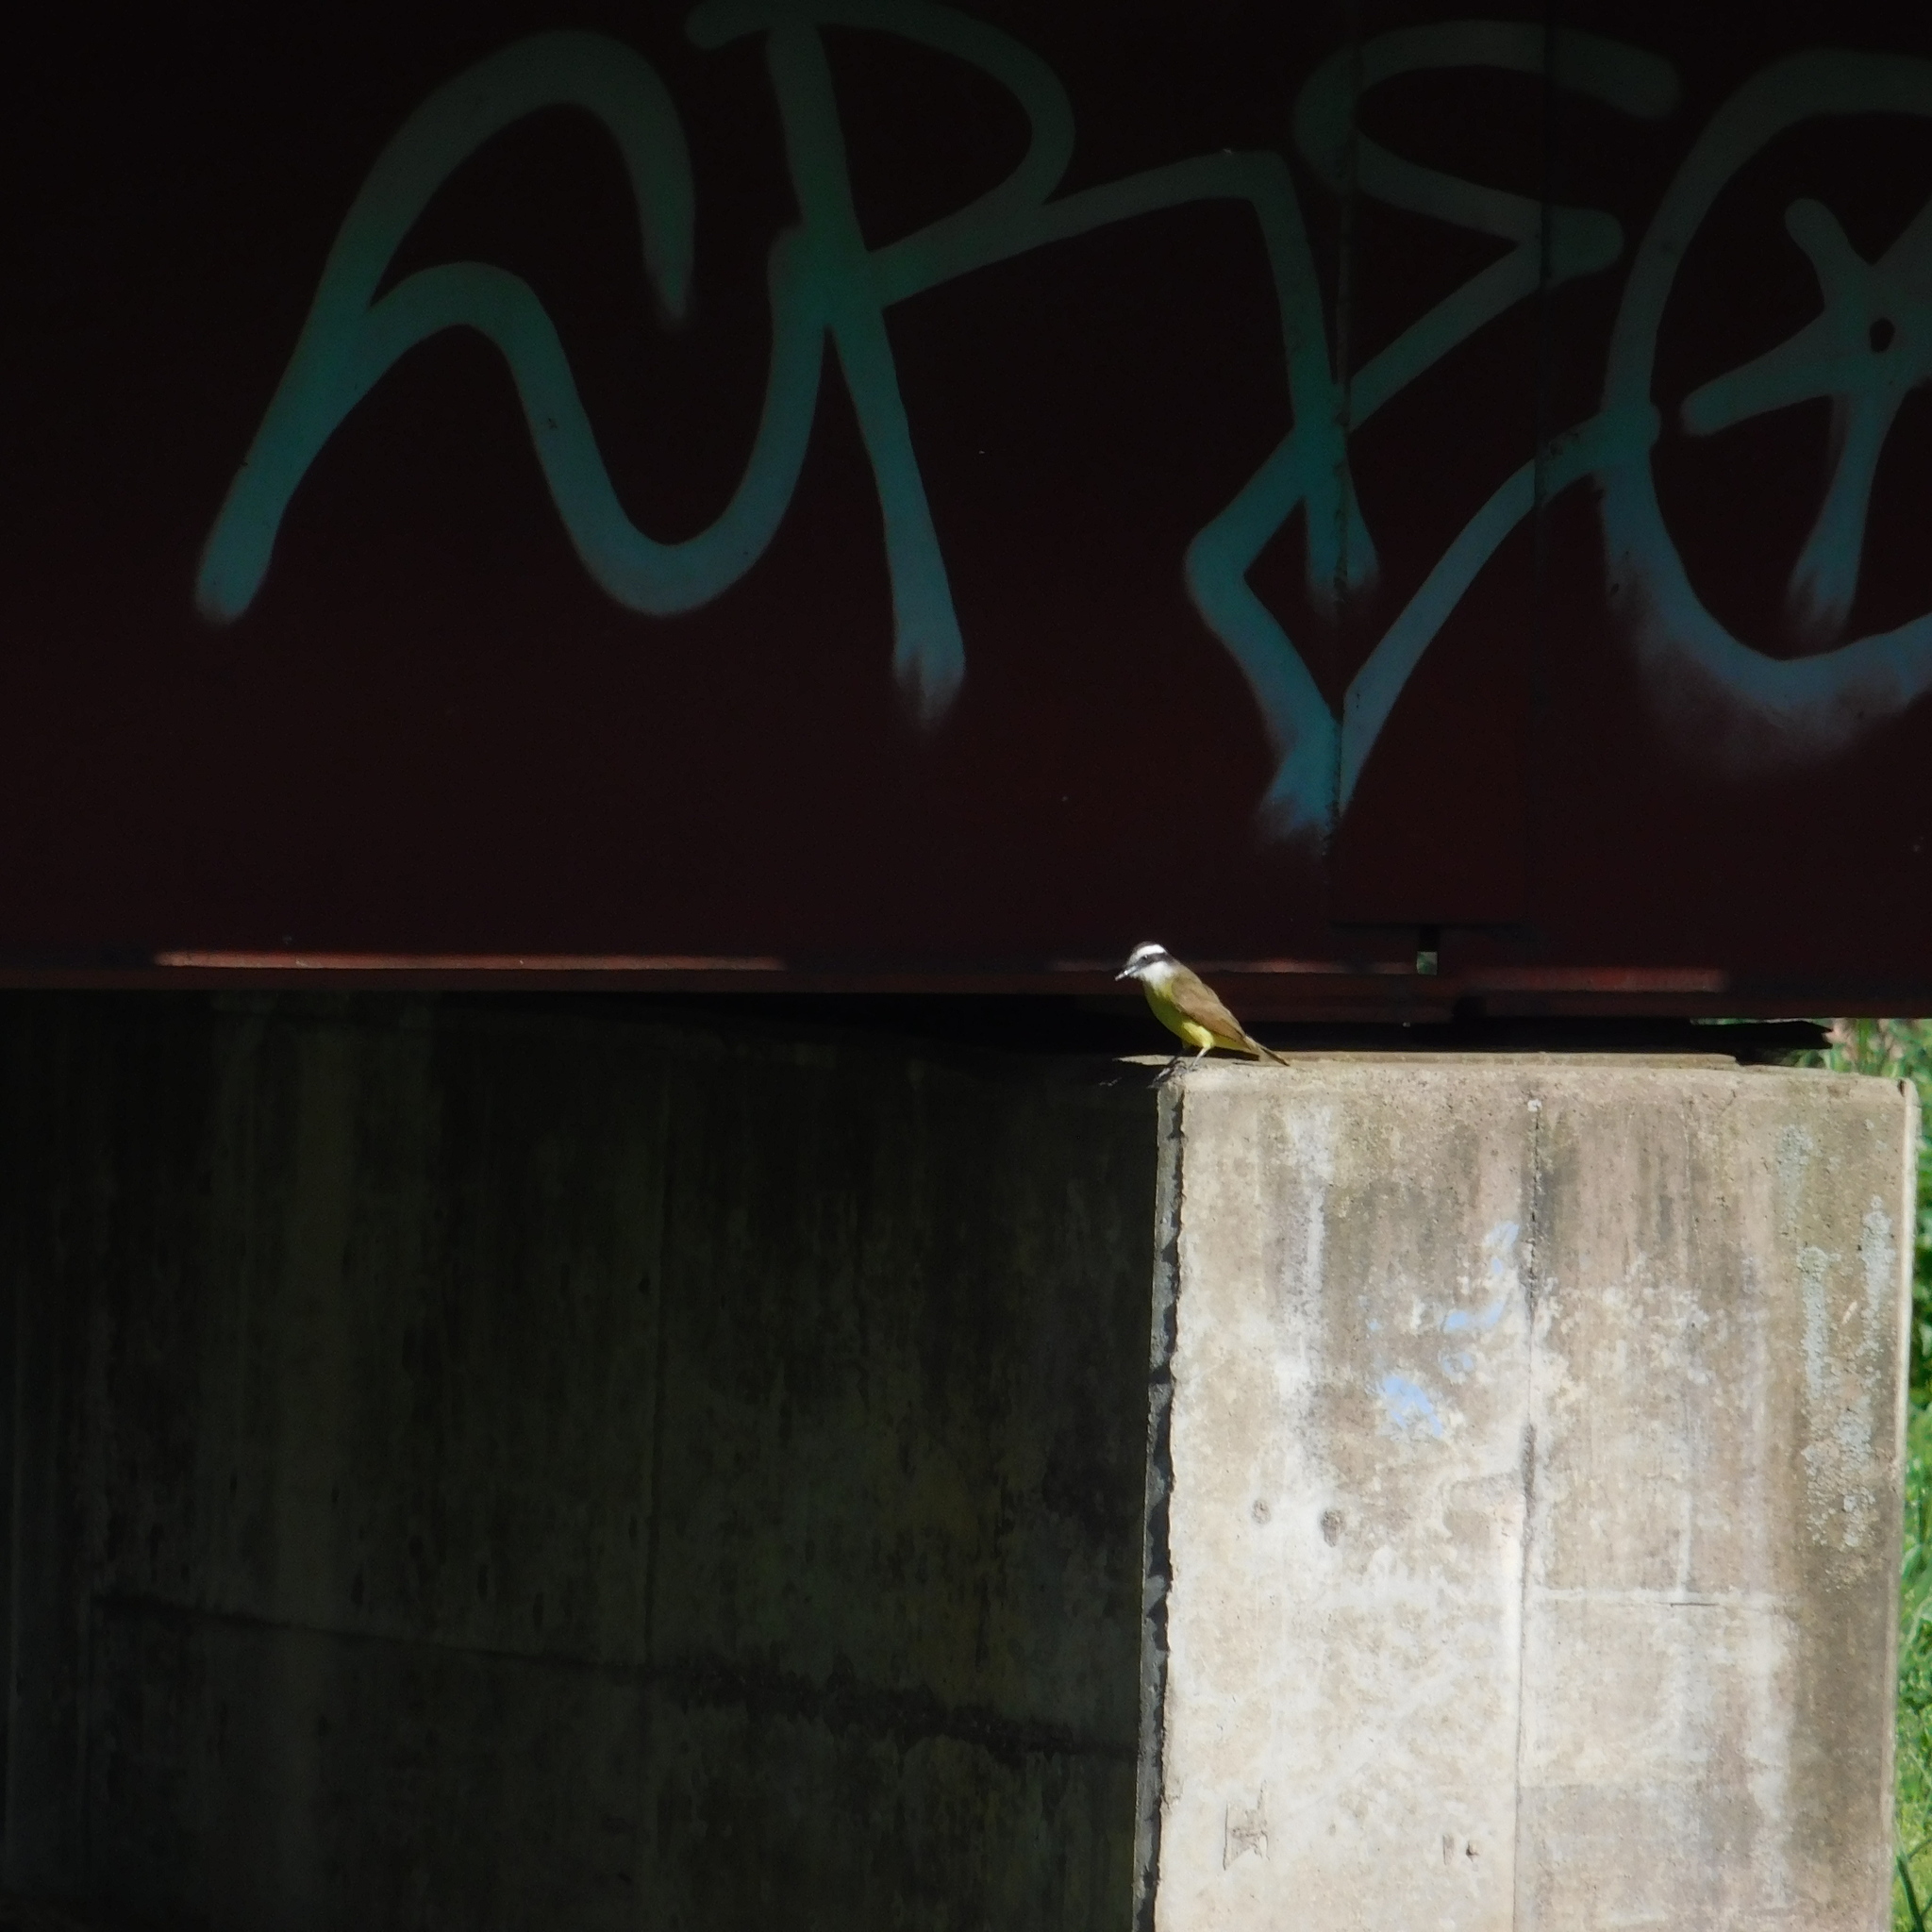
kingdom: Animalia
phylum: Chordata
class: Aves
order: Passeriformes
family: Tyrannidae
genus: Pitangus
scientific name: Pitangus sulphuratus
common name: Great kiskadee
